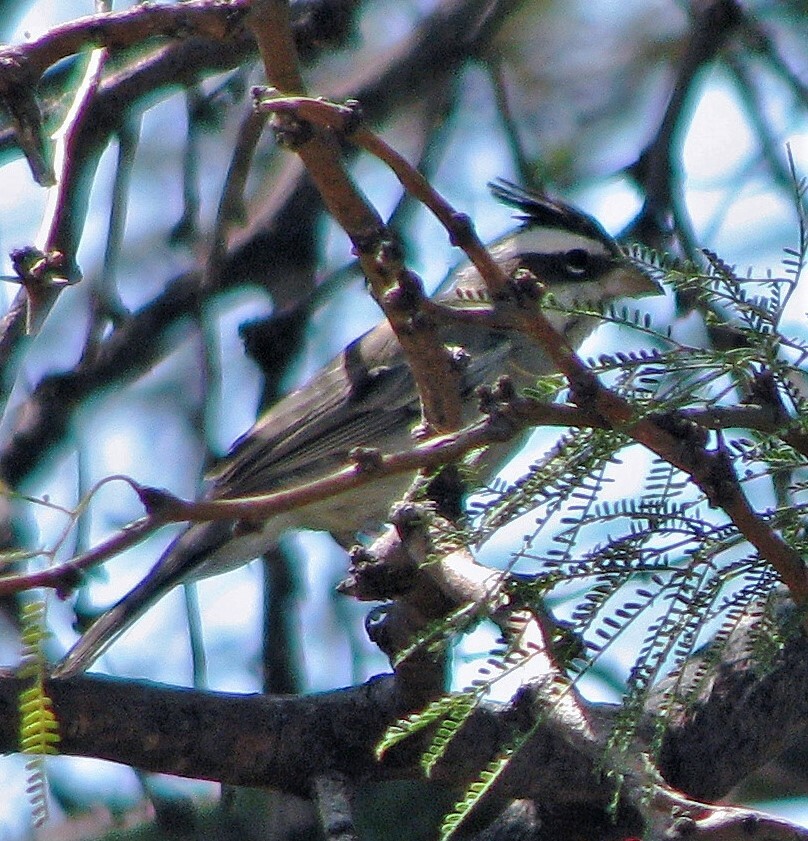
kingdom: Animalia
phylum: Chordata
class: Aves
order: Passeriformes
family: Thraupidae
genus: Lophospingus
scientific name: Lophospingus pusillus
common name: Black-crested finch
